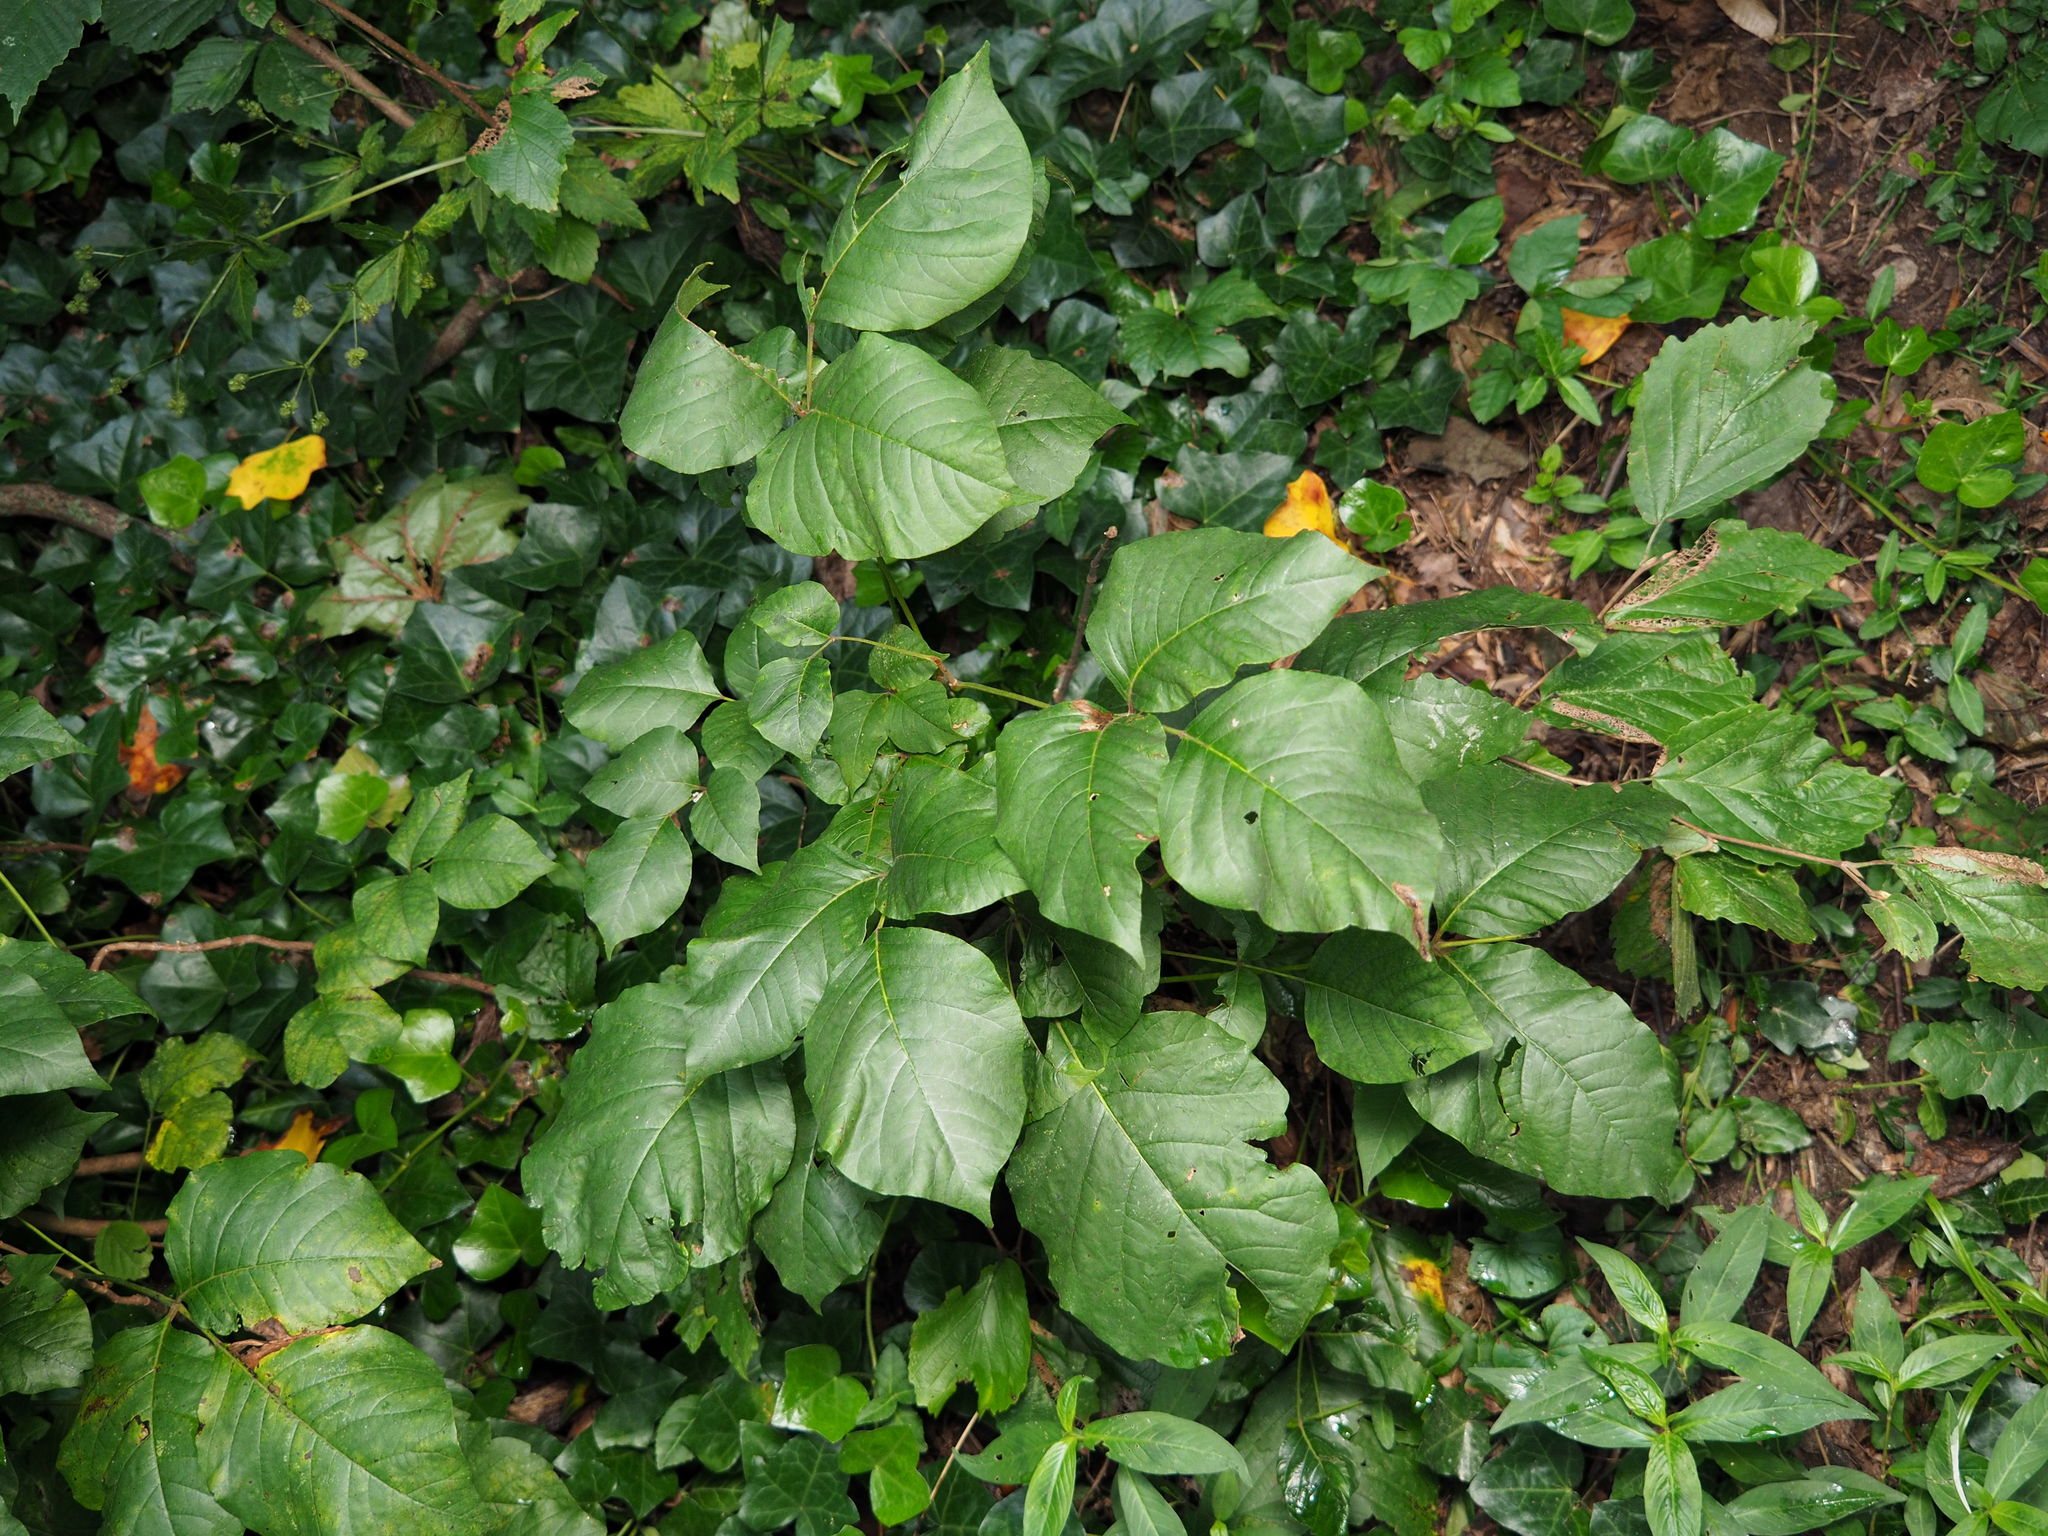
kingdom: Plantae
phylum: Tracheophyta
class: Magnoliopsida
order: Sapindales
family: Anacardiaceae
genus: Toxicodendron
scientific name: Toxicodendron radicans
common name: Poison ivy
